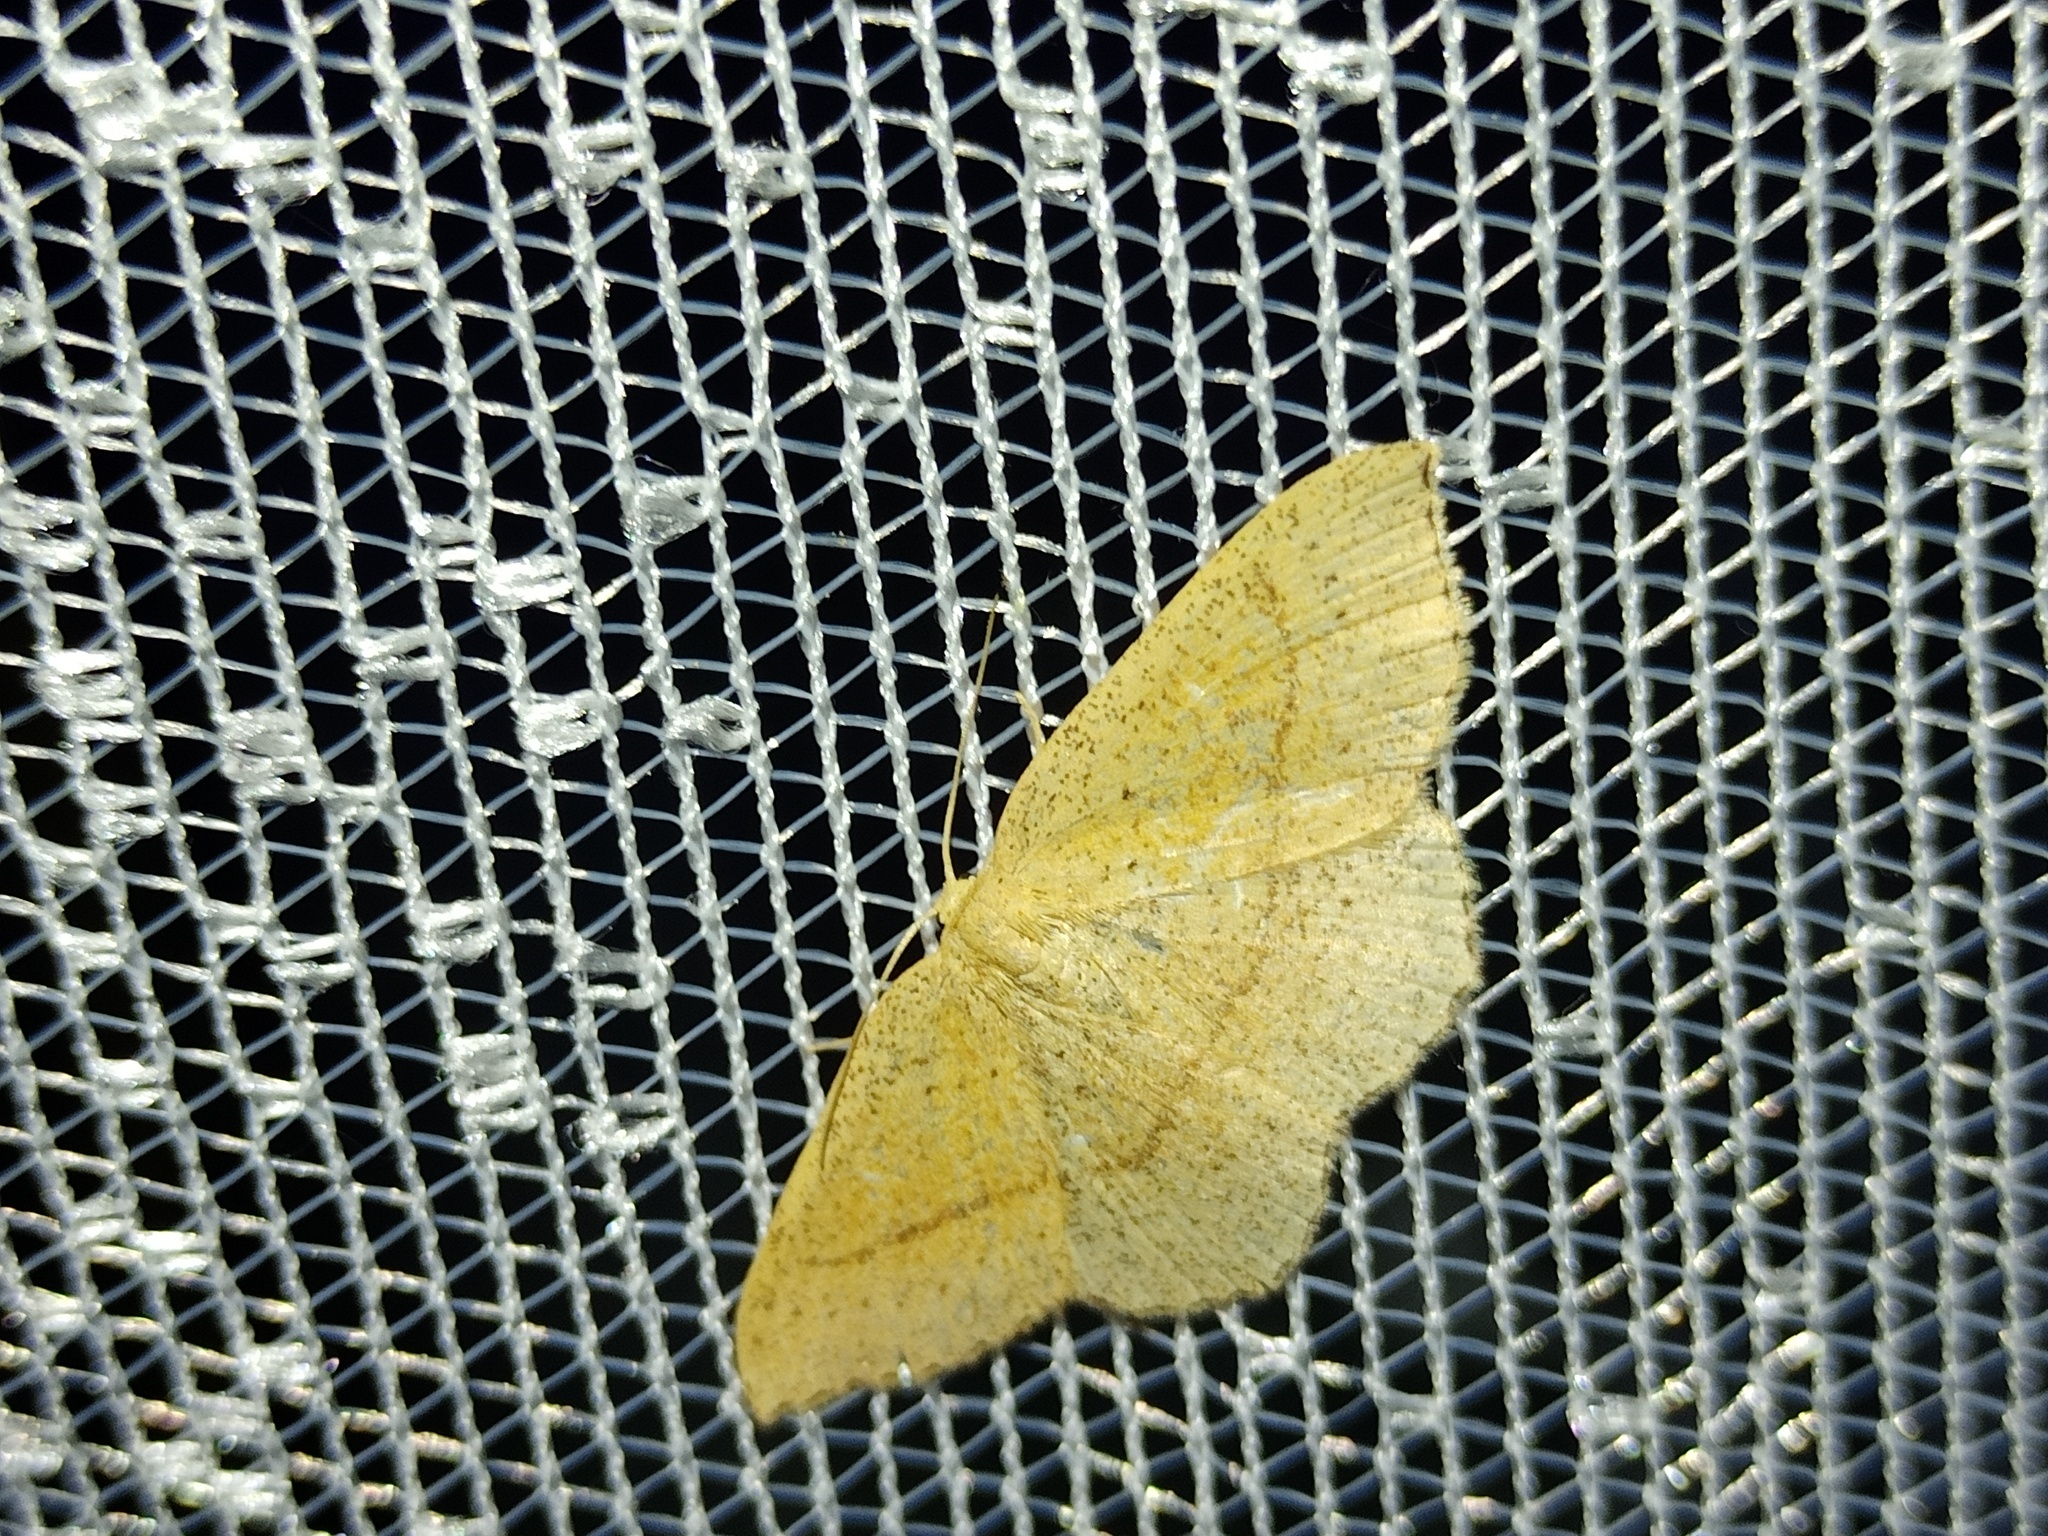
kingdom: Animalia
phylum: Arthropoda
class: Insecta
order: Lepidoptera
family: Geometridae
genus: Cyclophora
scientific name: Cyclophora punctaria
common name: Maiden's blush
